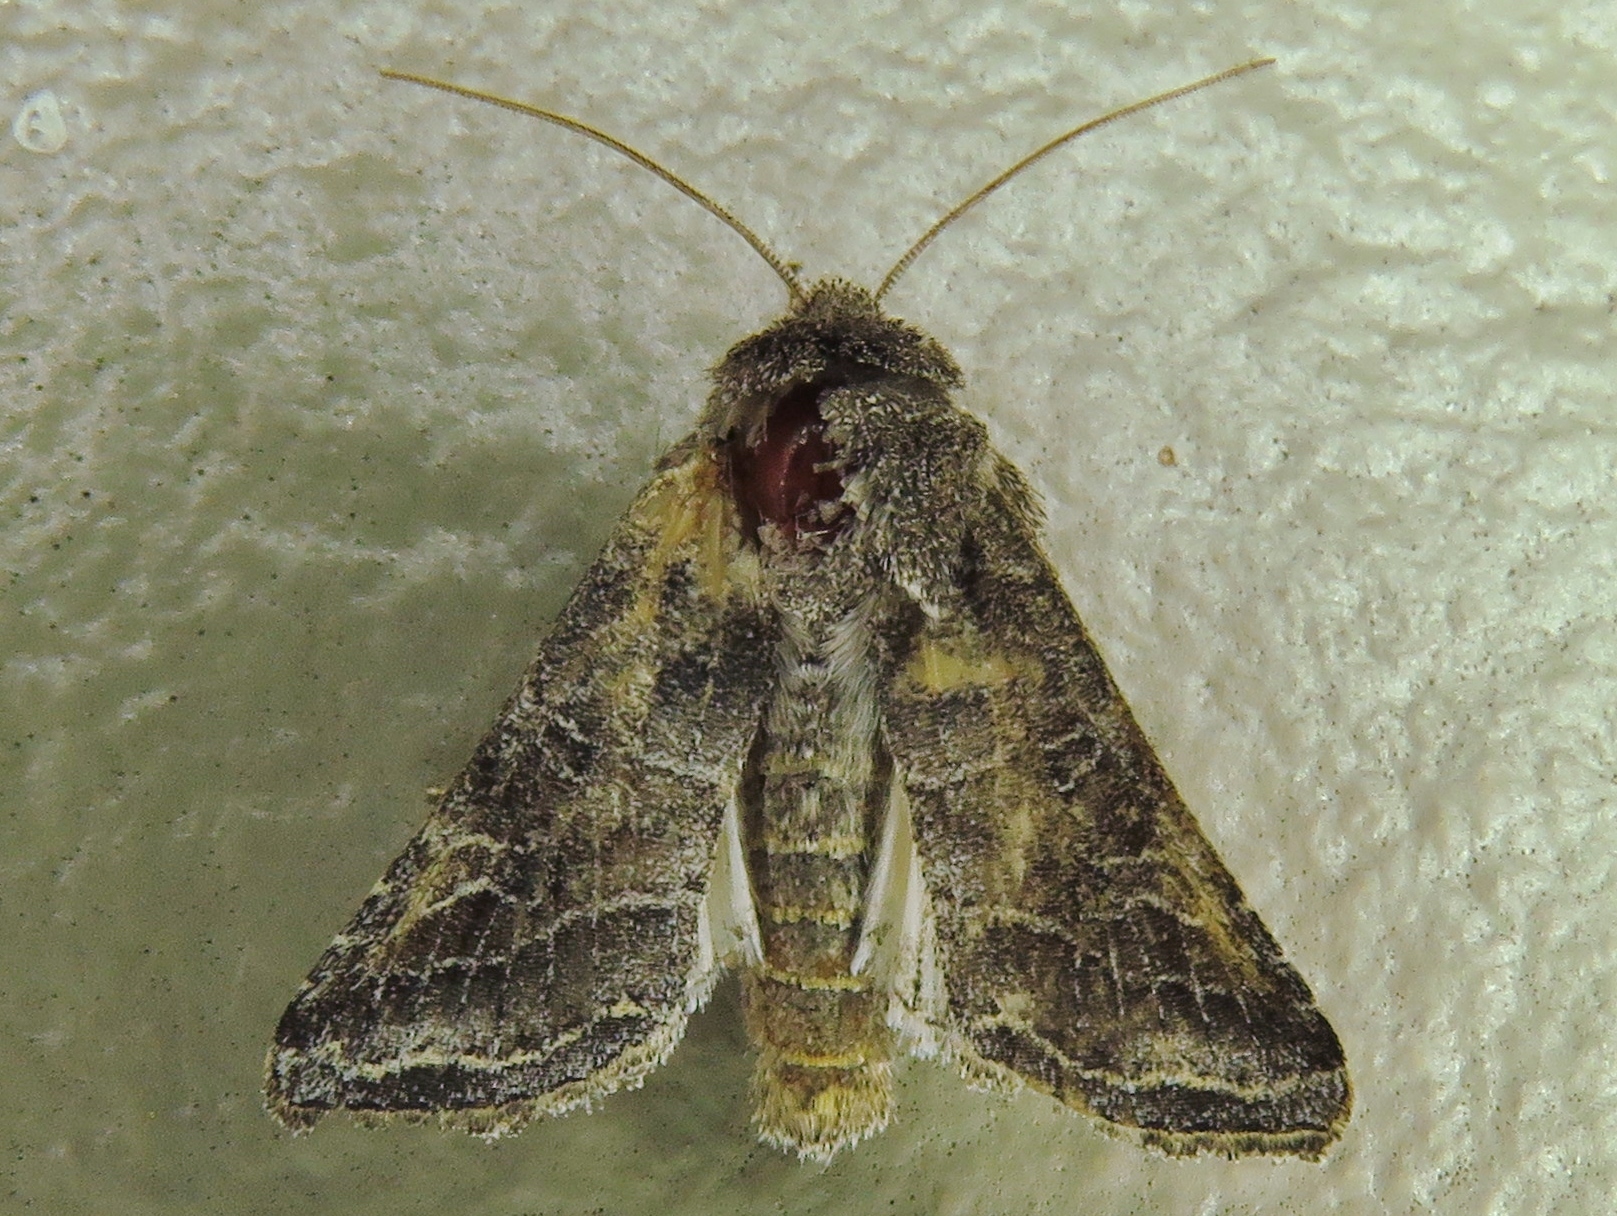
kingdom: Animalia
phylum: Arthropoda
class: Insecta
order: Lepidoptera
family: Noctuidae
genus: Lacinipolia
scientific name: Lacinipolia erecta
